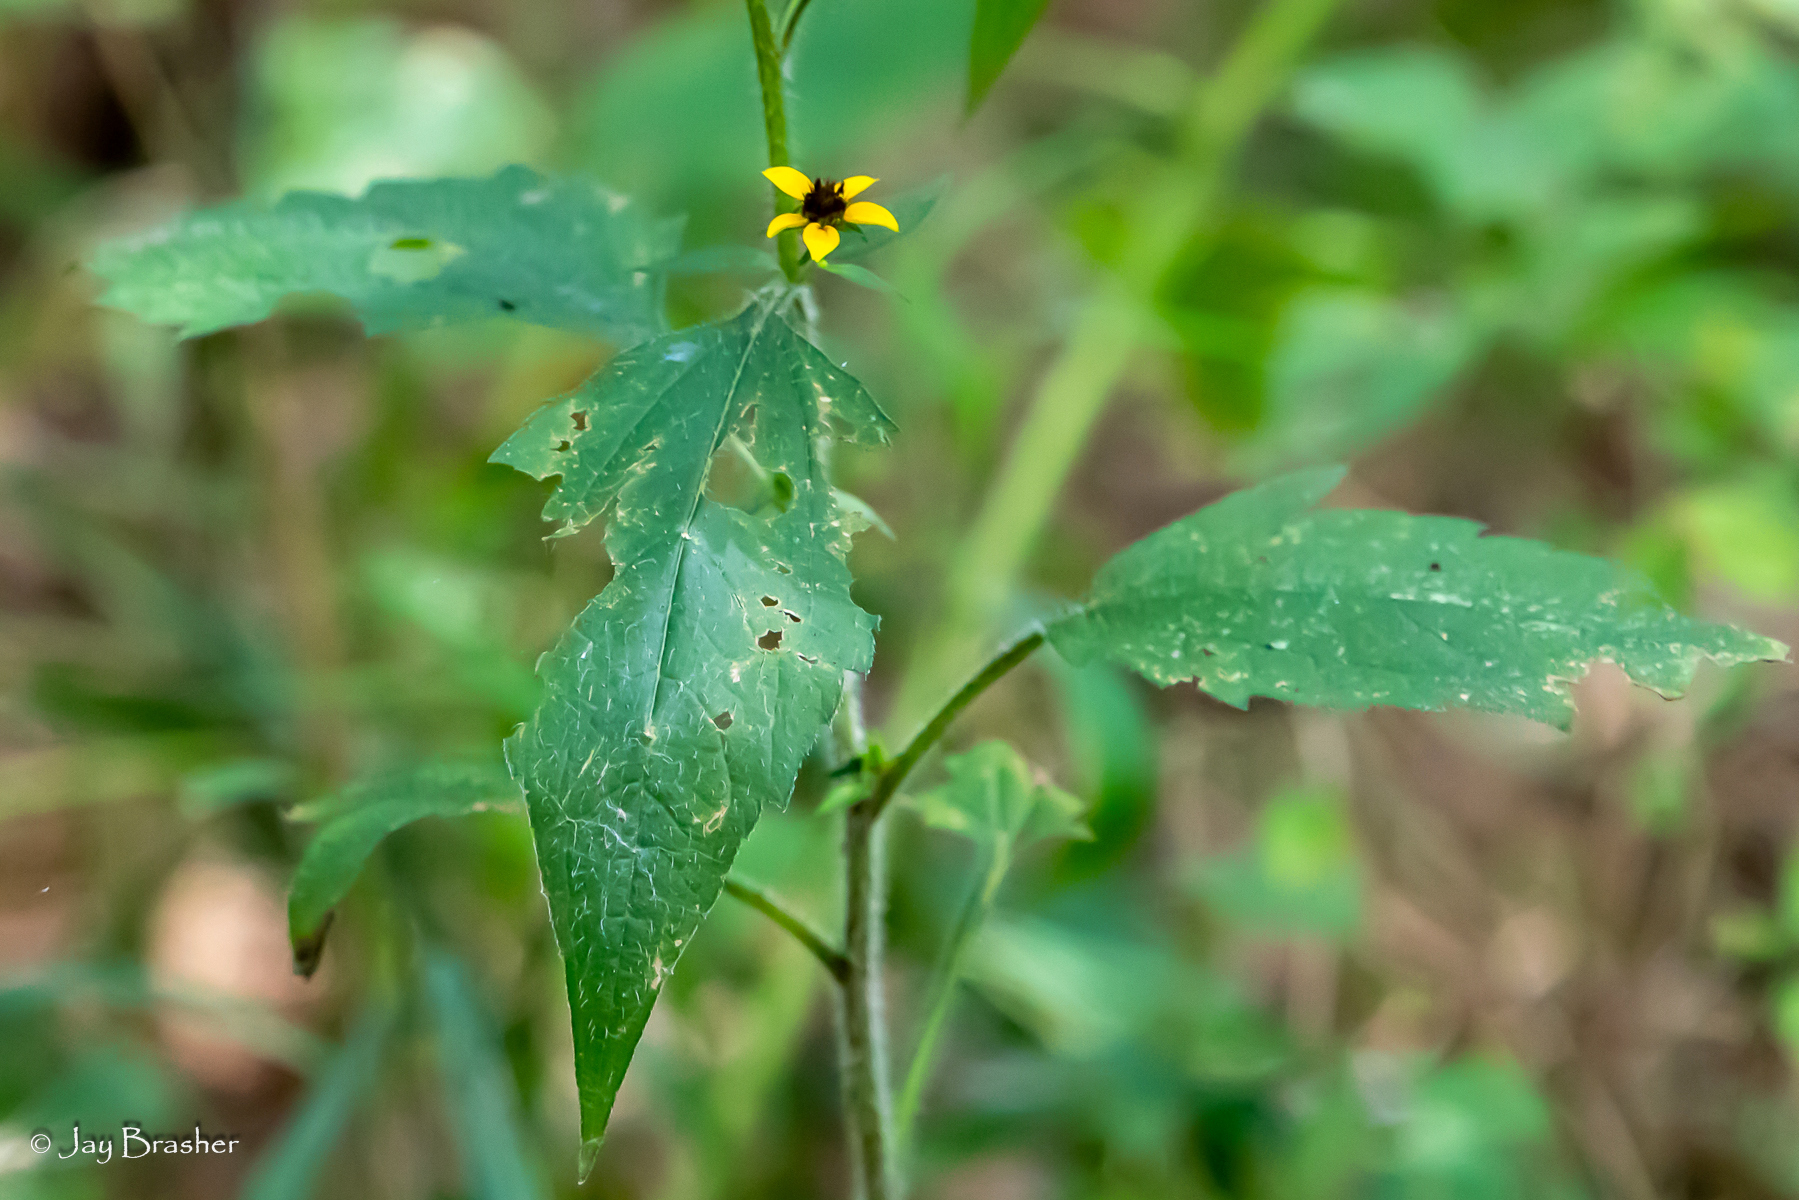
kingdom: Plantae
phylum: Tracheophyta
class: Magnoliopsida
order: Asterales
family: Asteraceae
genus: Rudbeckia
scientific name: Rudbeckia triloba
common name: Thin-leaved coneflower
